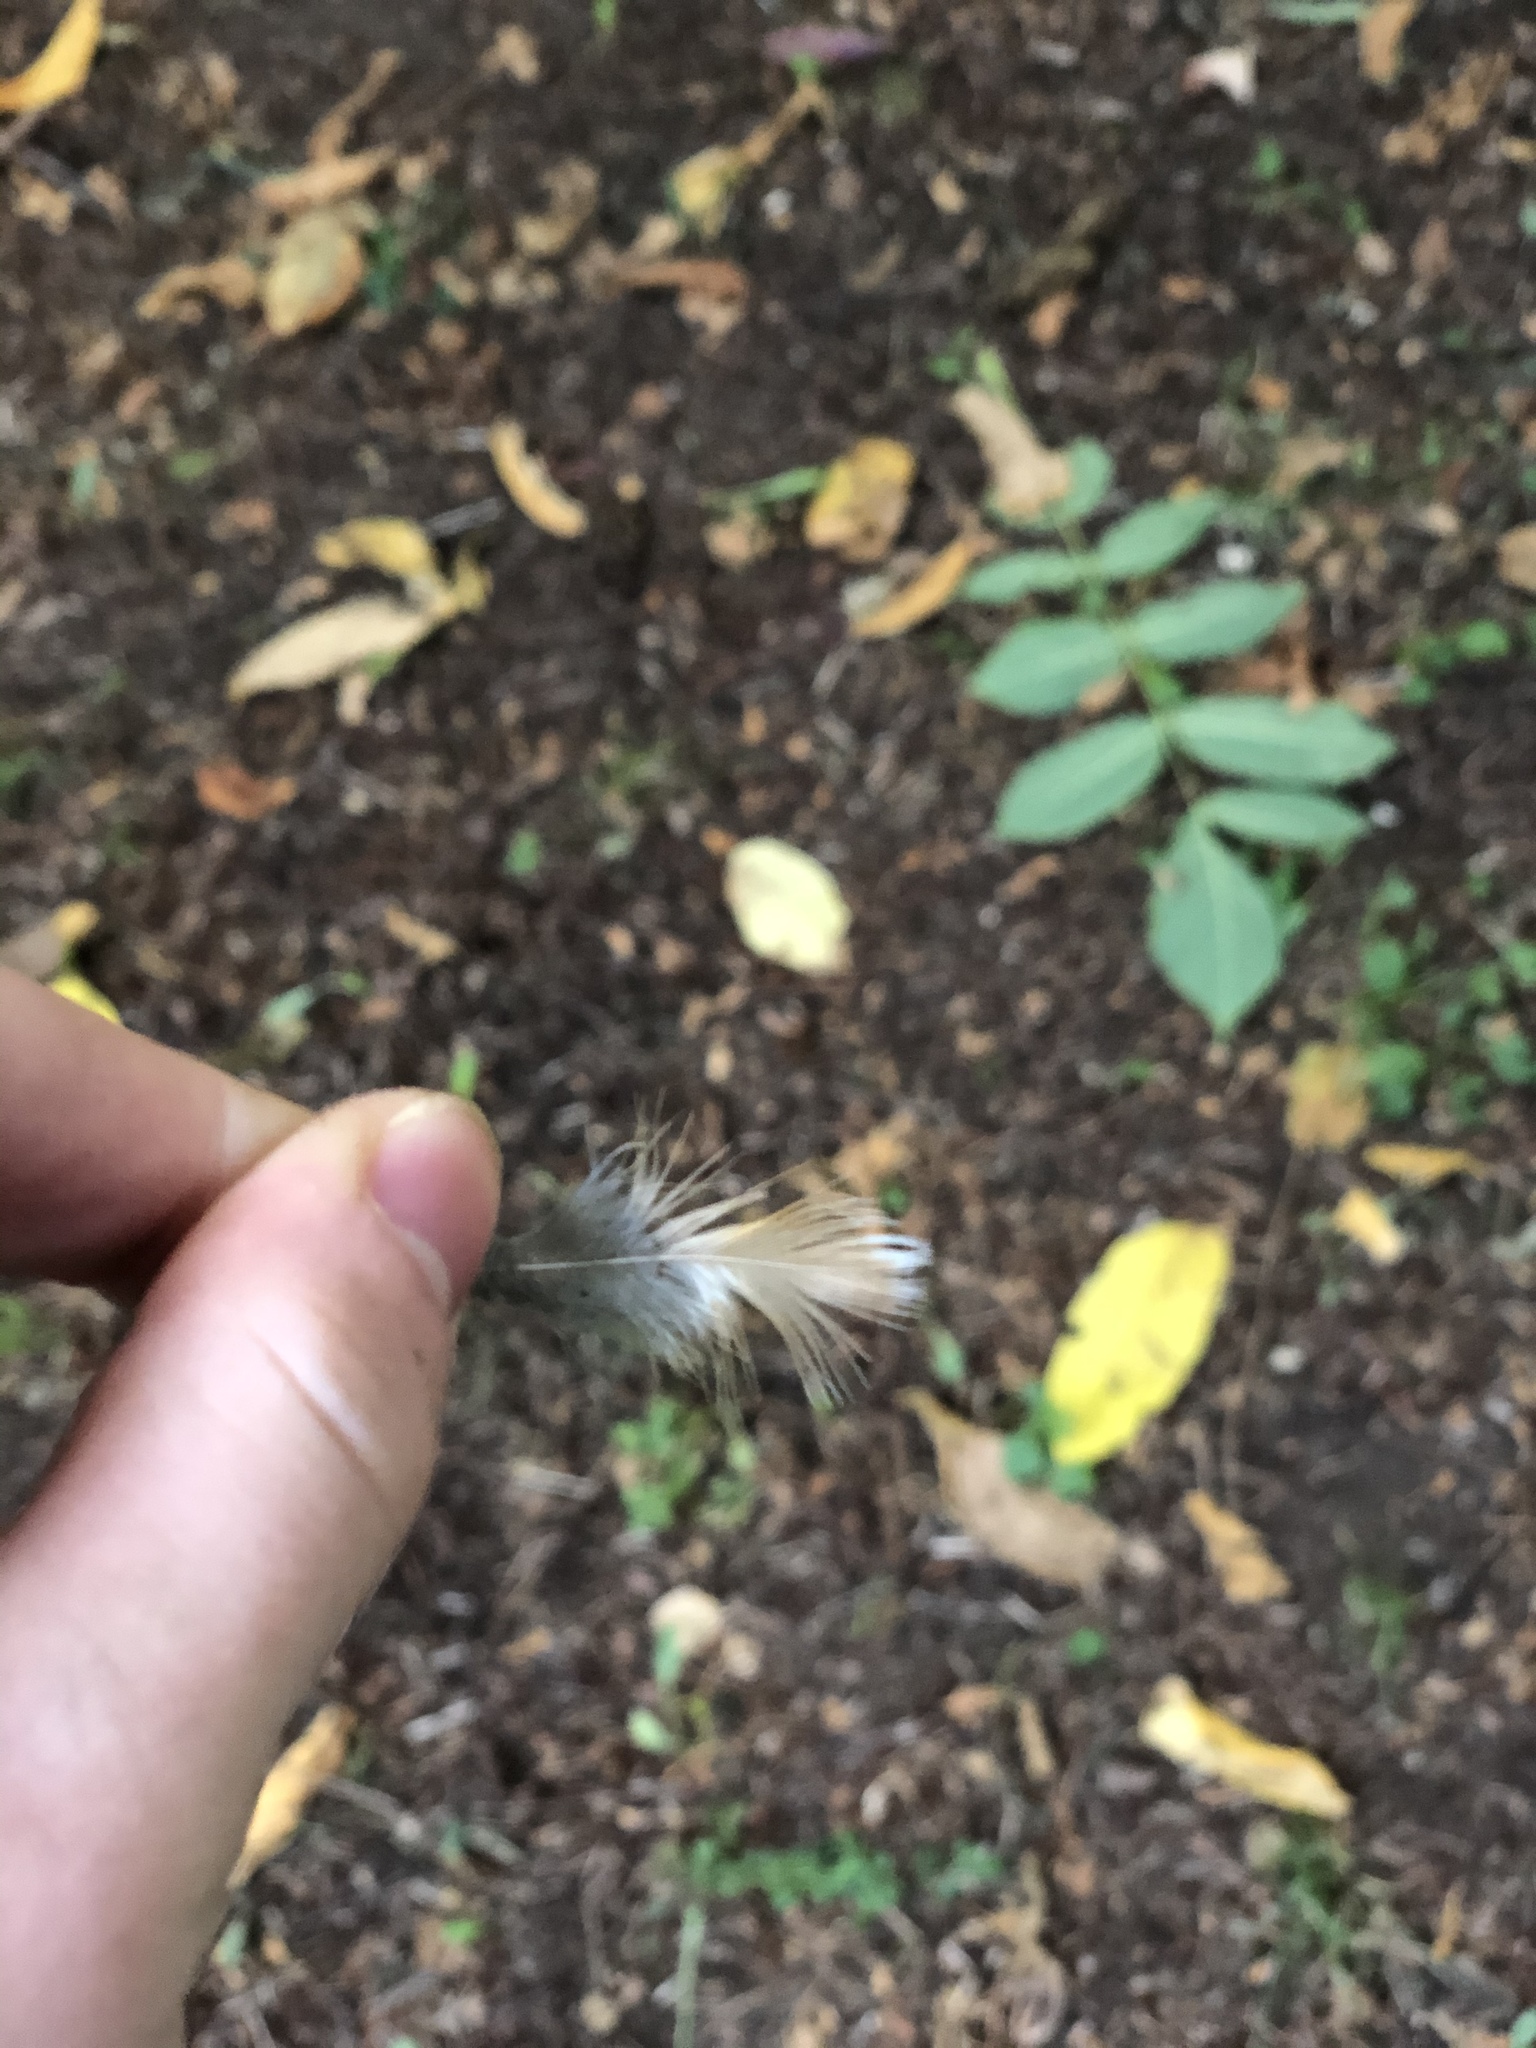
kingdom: Animalia
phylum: Chordata
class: Aves
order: Passeriformes
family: Turdidae
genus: Turdus
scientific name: Turdus migratorius
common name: American robin
